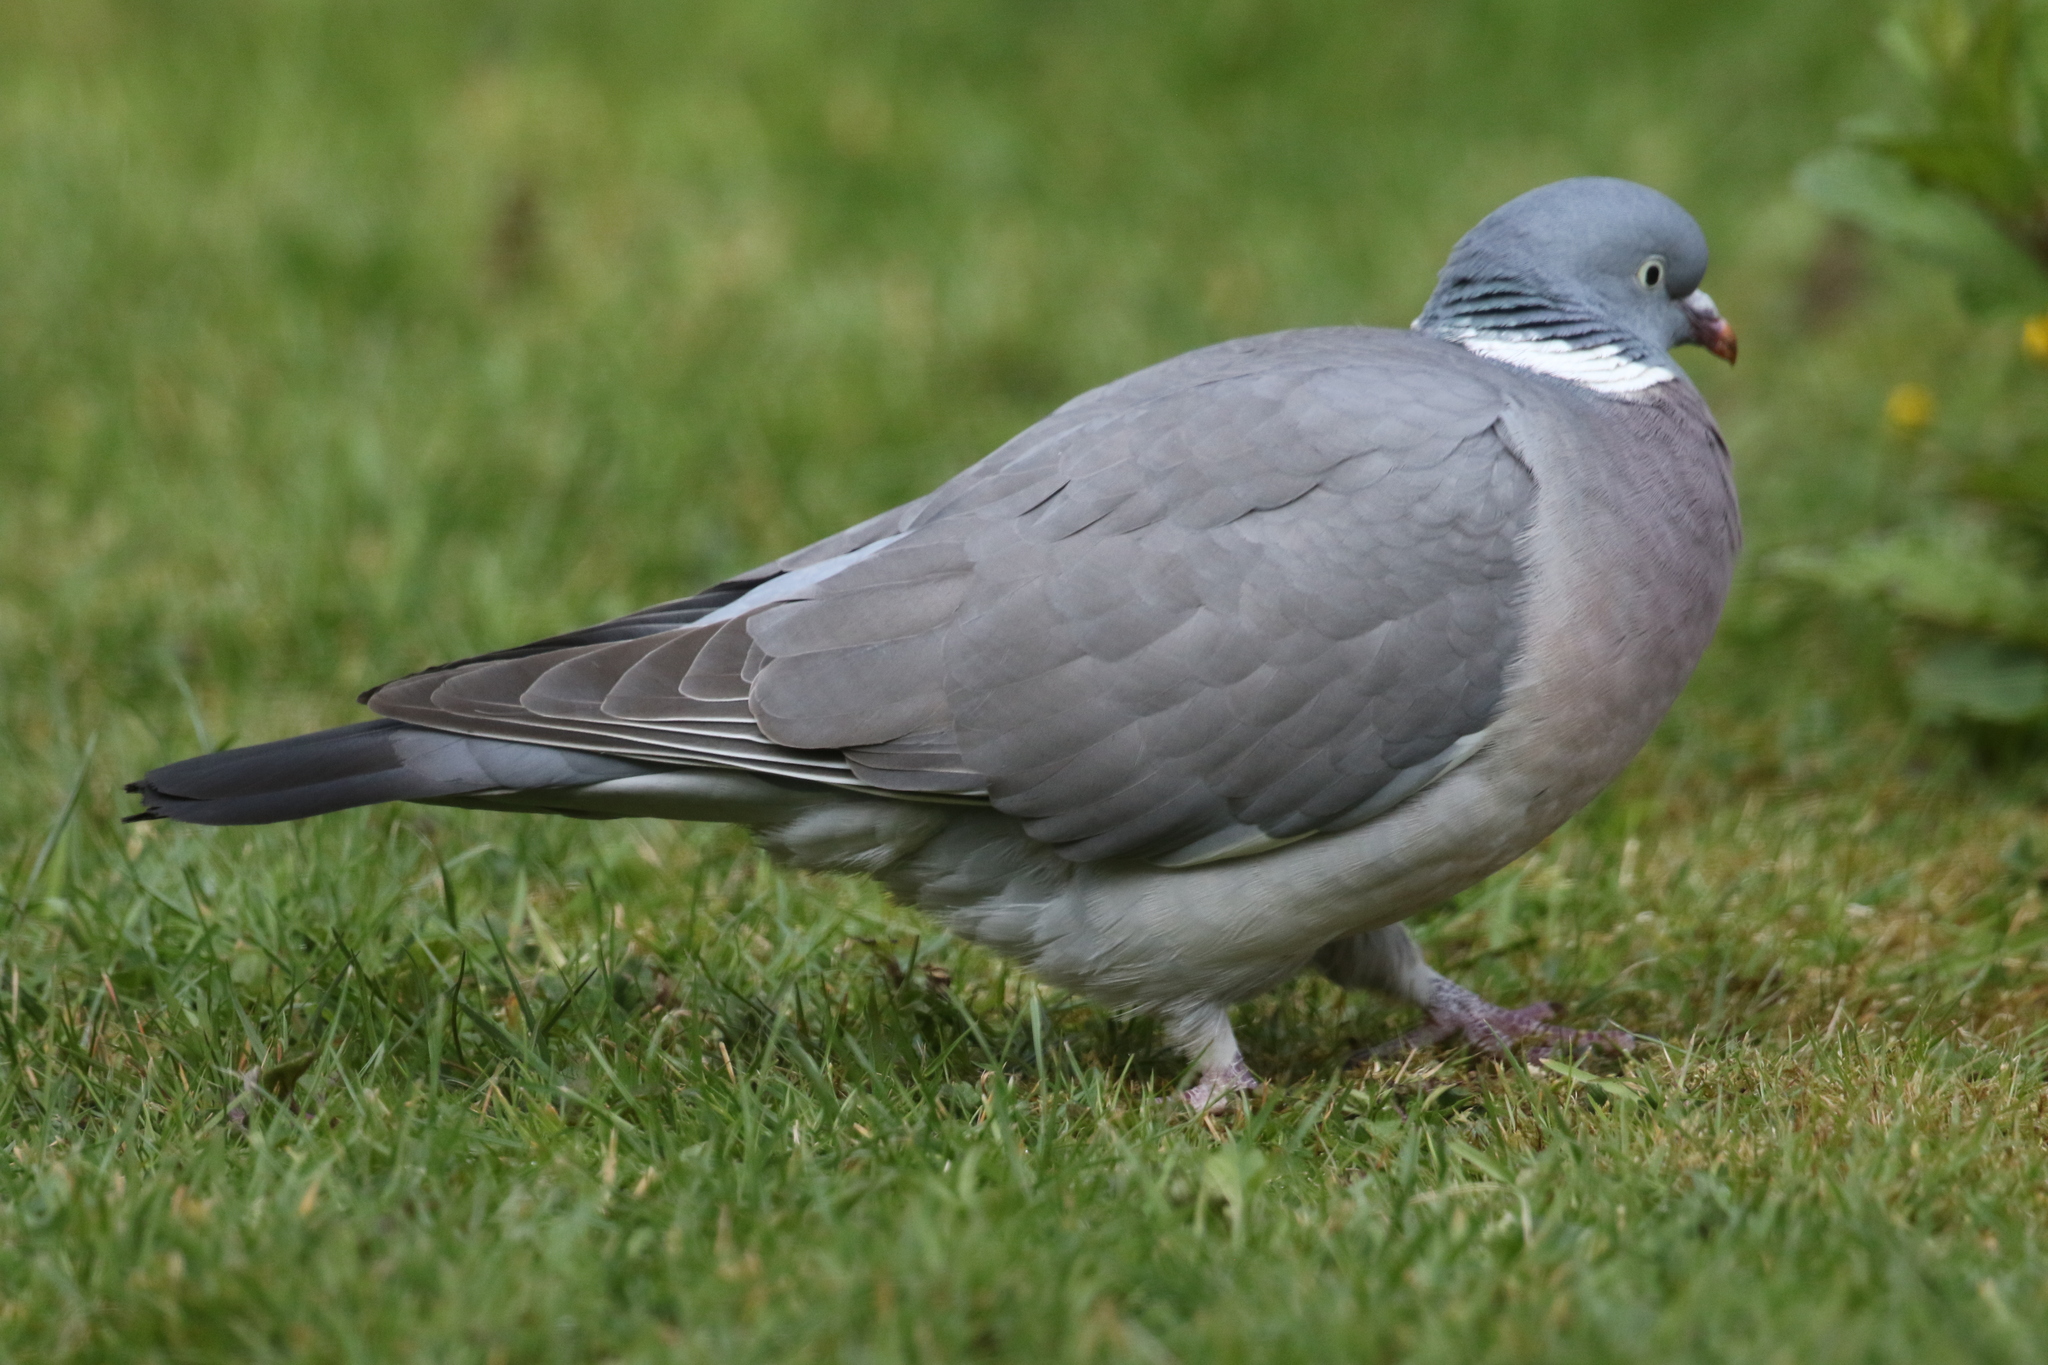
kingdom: Animalia
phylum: Chordata
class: Aves
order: Columbiformes
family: Columbidae
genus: Columba
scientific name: Columba palumbus
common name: Common wood pigeon
